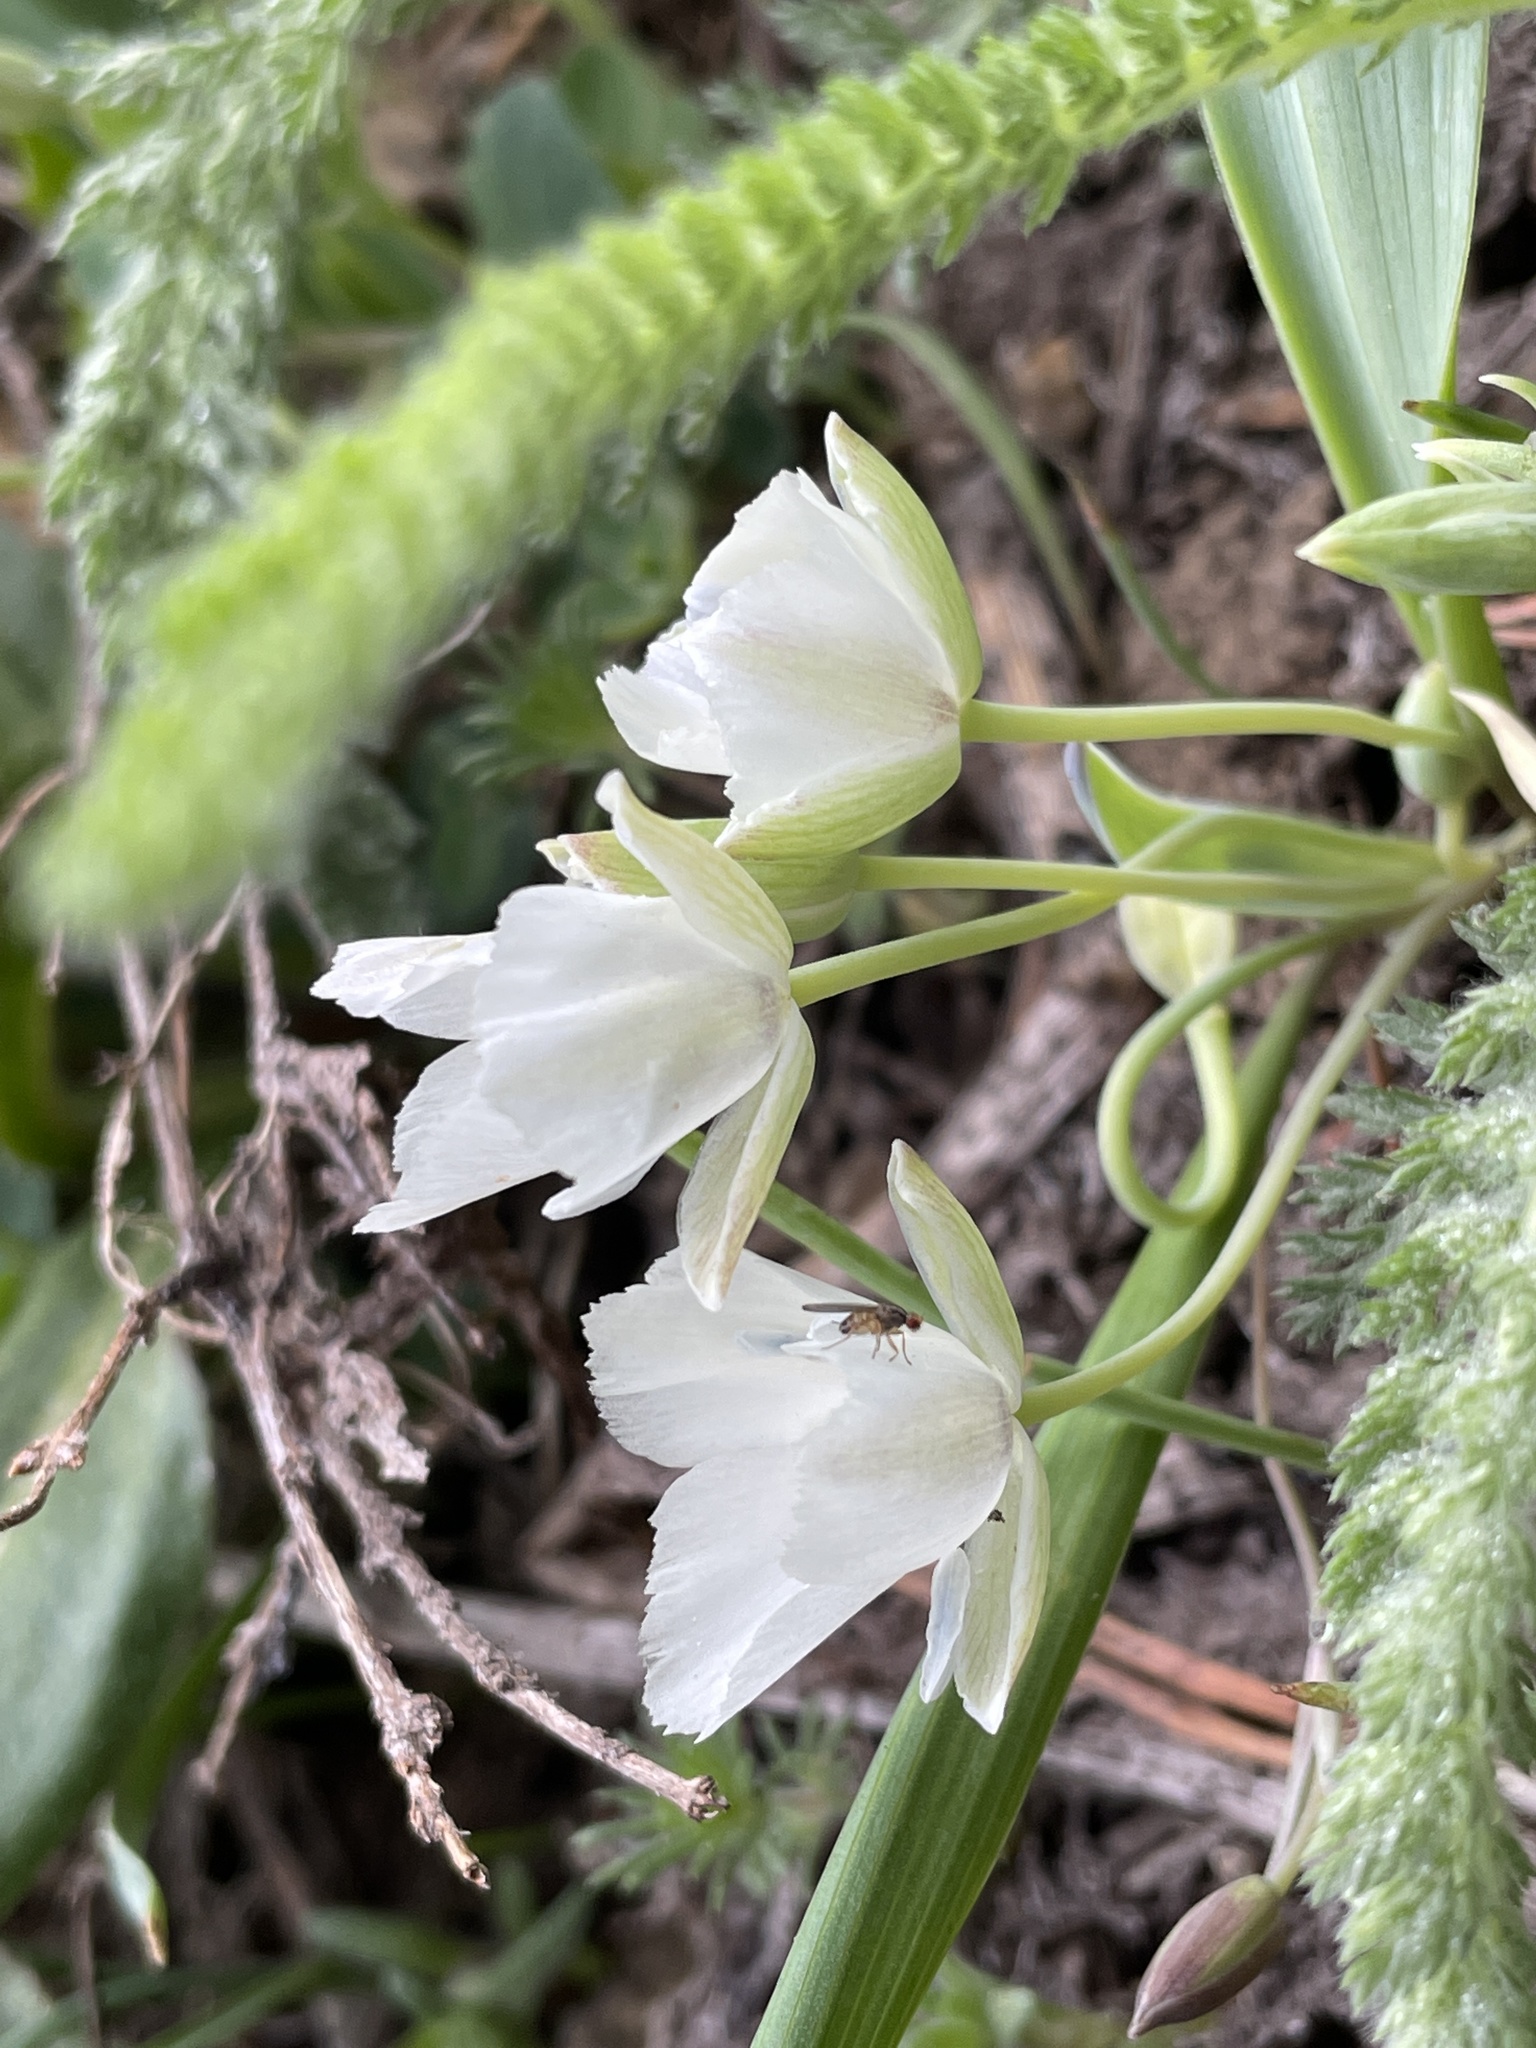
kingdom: Plantae
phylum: Tracheophyta
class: Liliopsida
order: Liliales
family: Liliaceae
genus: Calochortus
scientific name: Calochortus minimus
